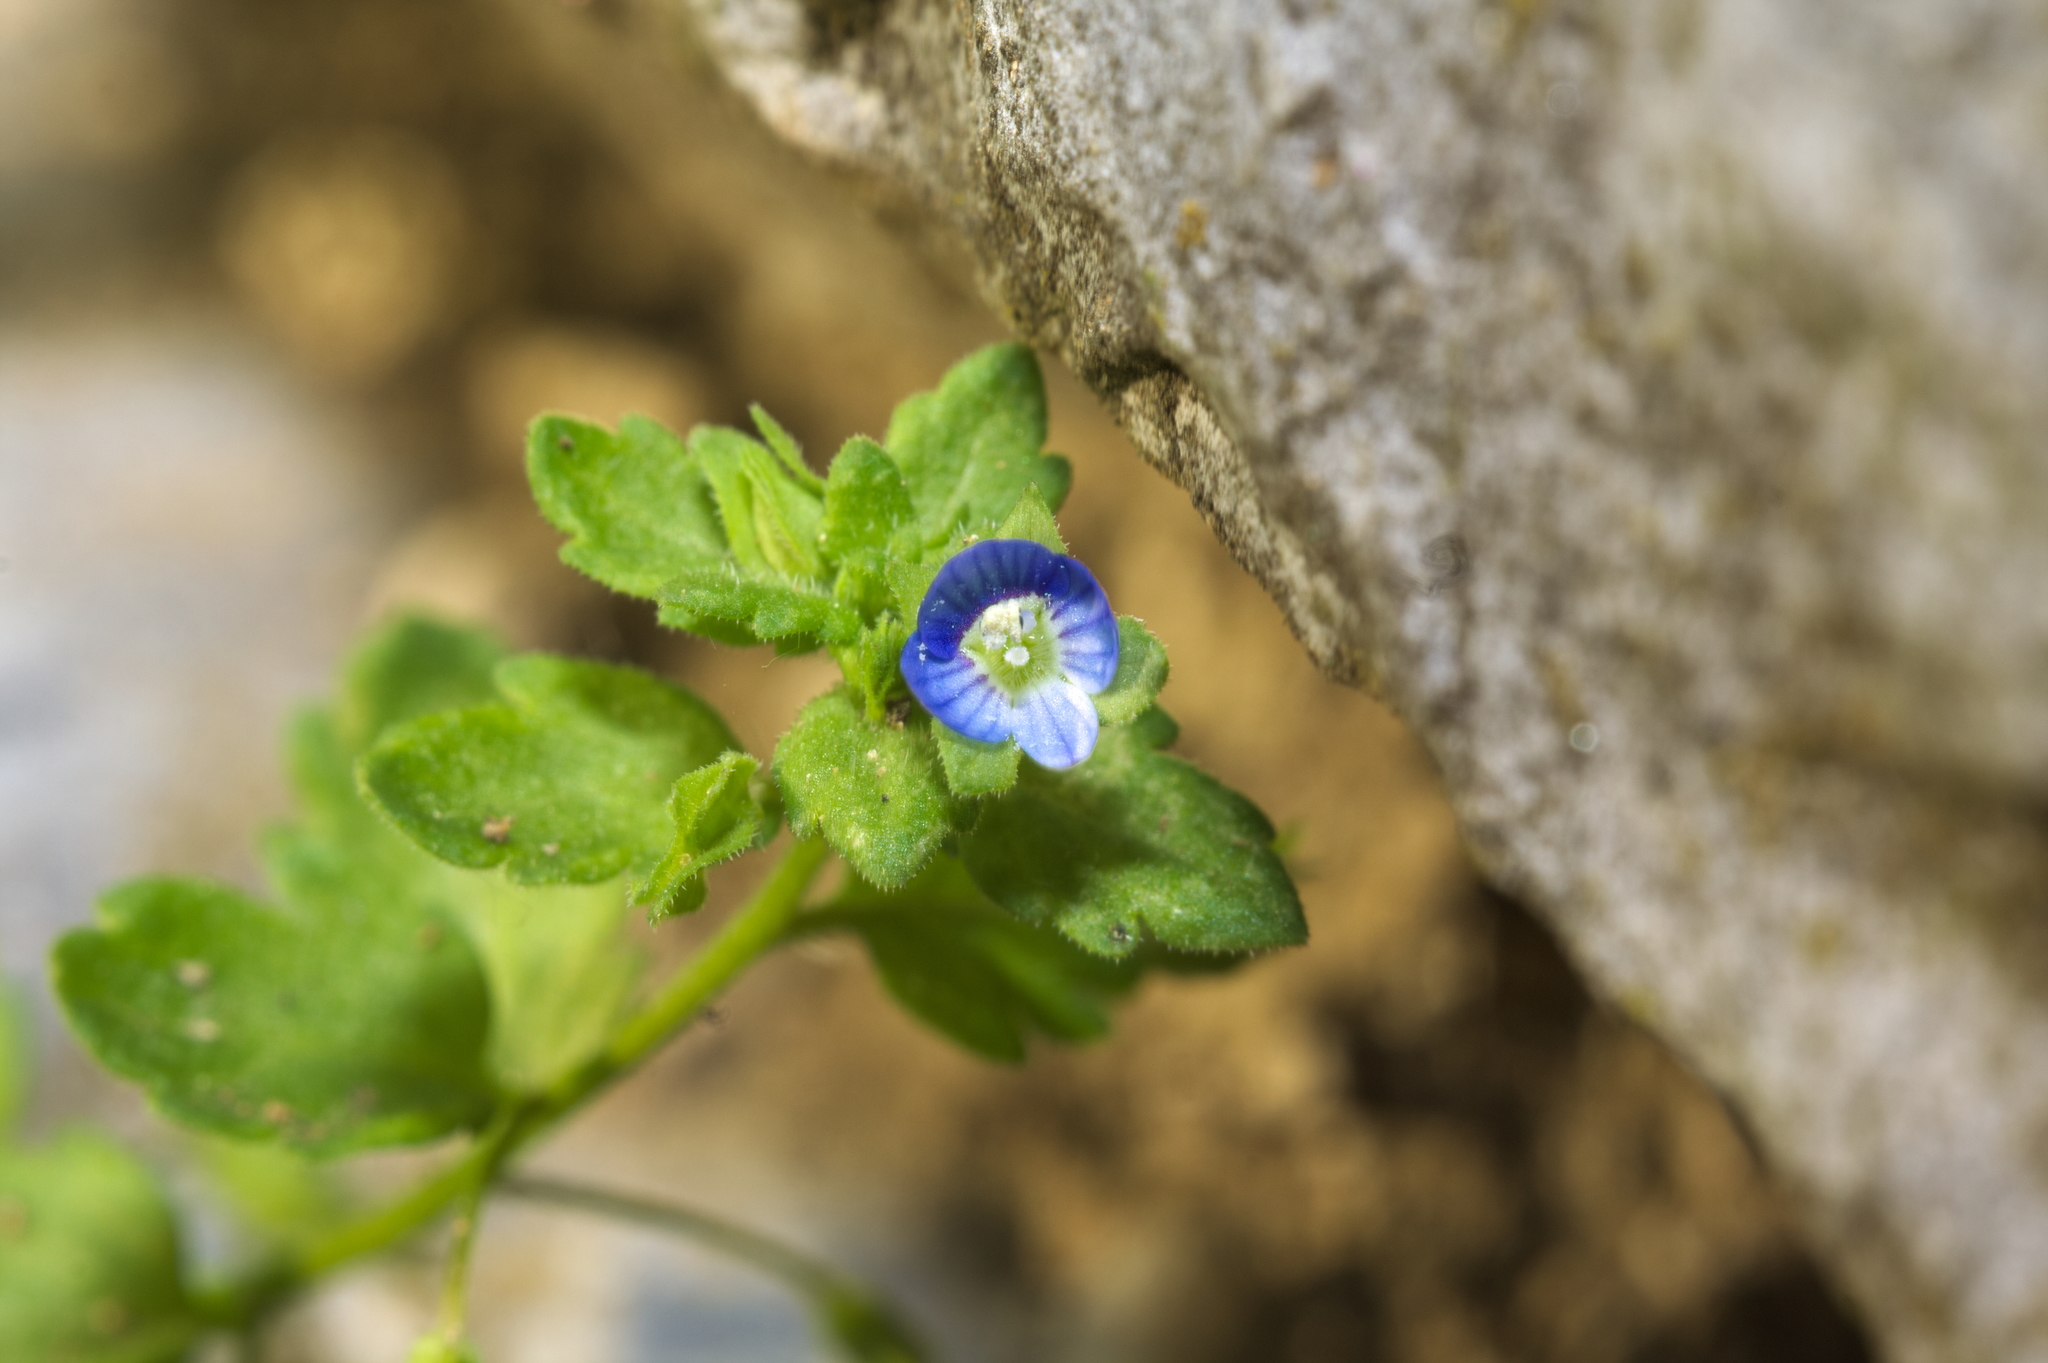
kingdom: Plantae
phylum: Tracheophyta
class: Magnoliopsida
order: Lamiales
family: Plantaginaceae
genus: Veronica
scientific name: Veronica persica
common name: Common field-speedwell
